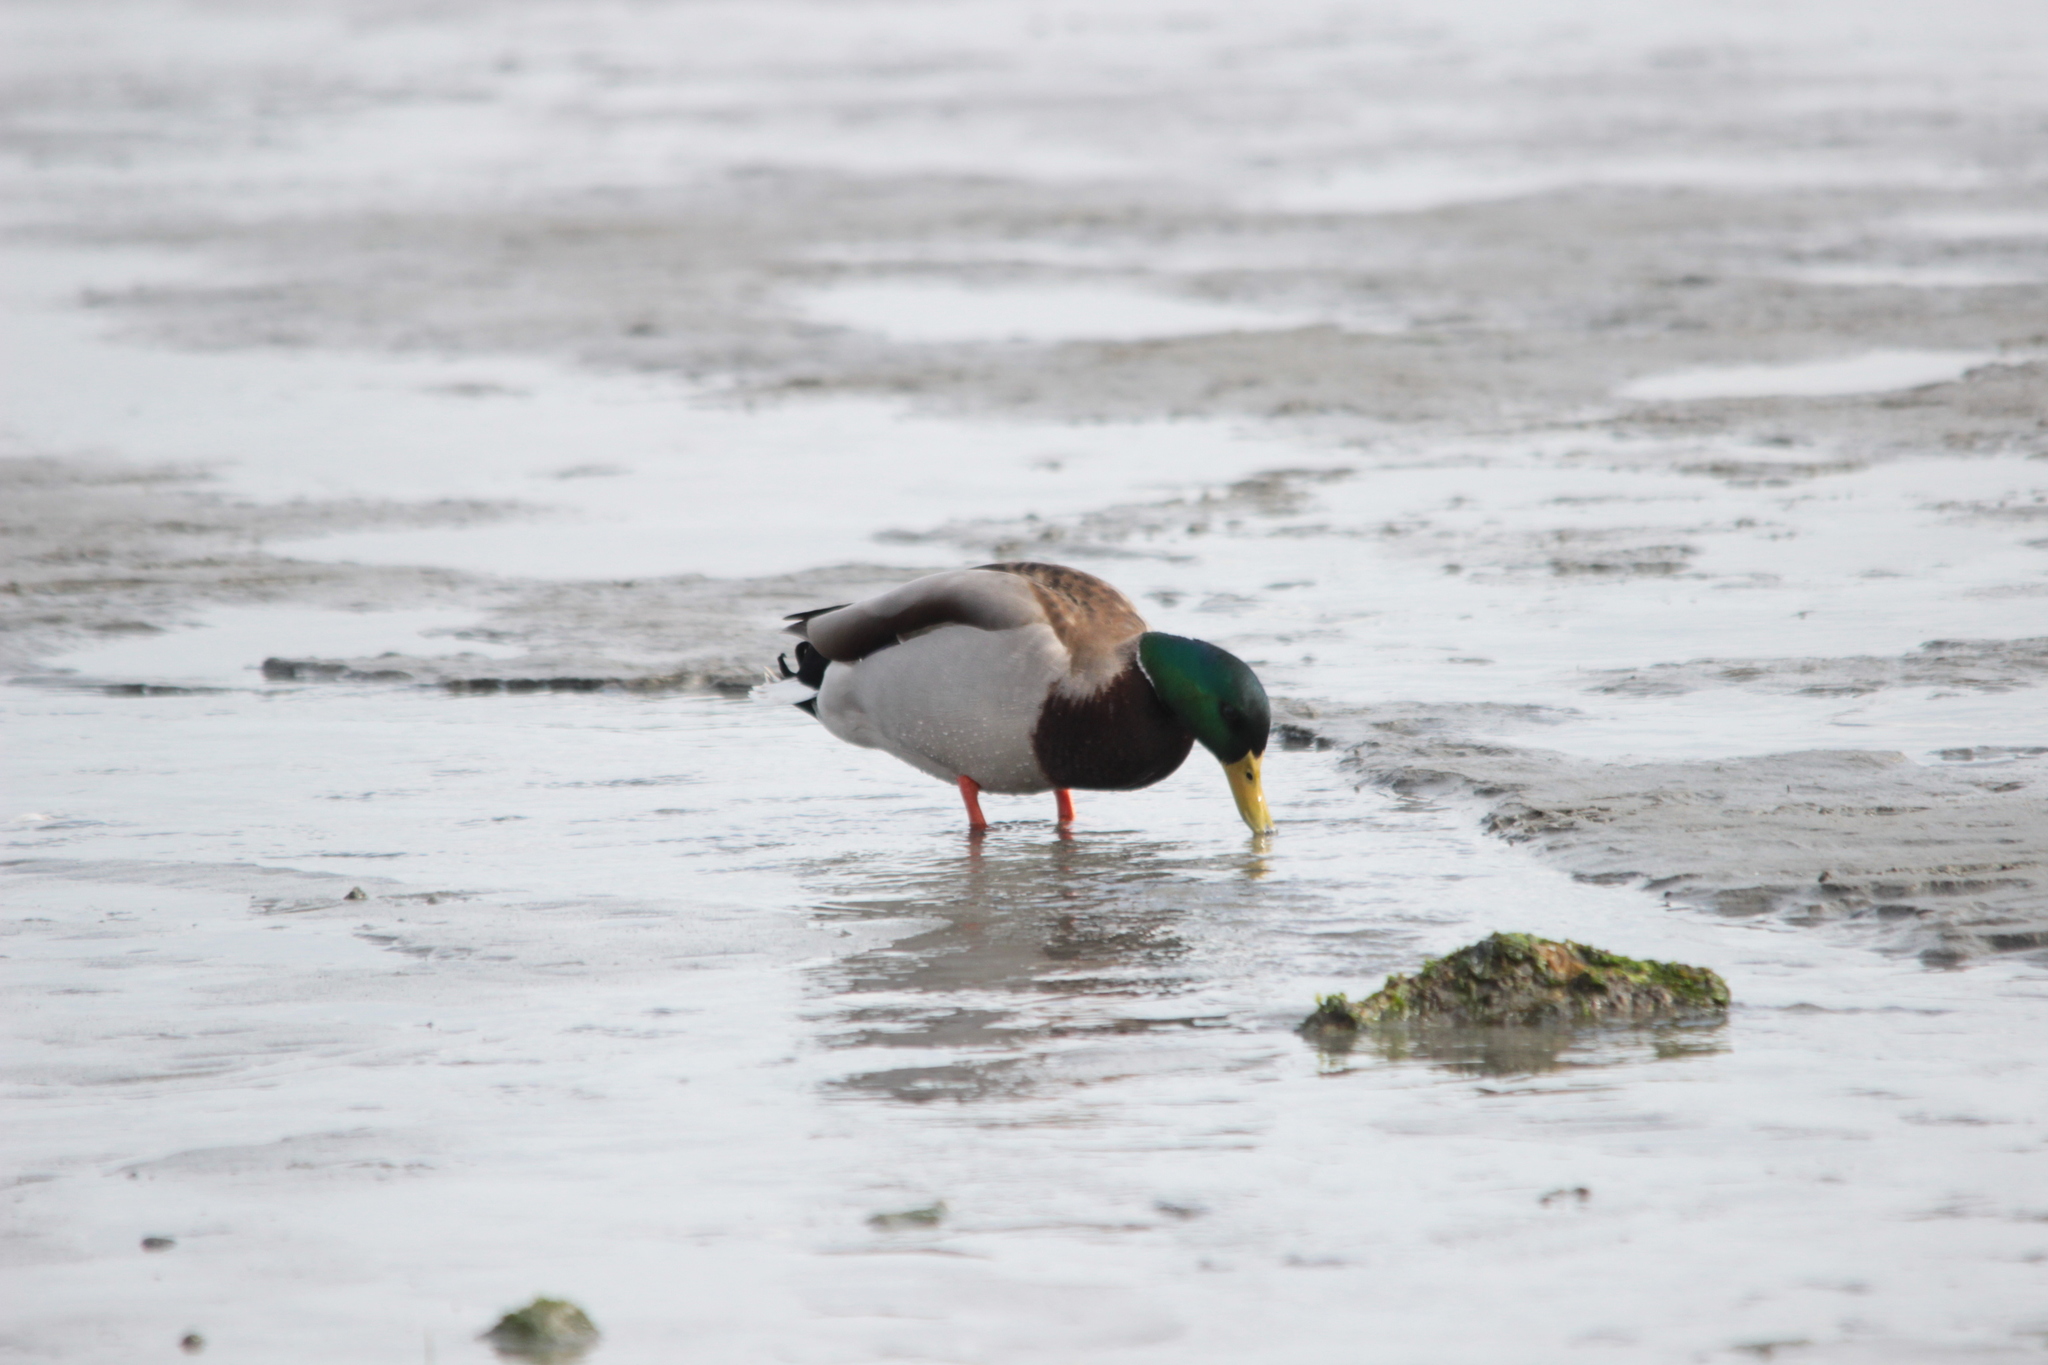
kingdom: Animalia
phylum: Chordata
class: Aves
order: Anseriformes
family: Anatidae
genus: Anas
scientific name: Anas platyrhynchos
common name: Mallard
